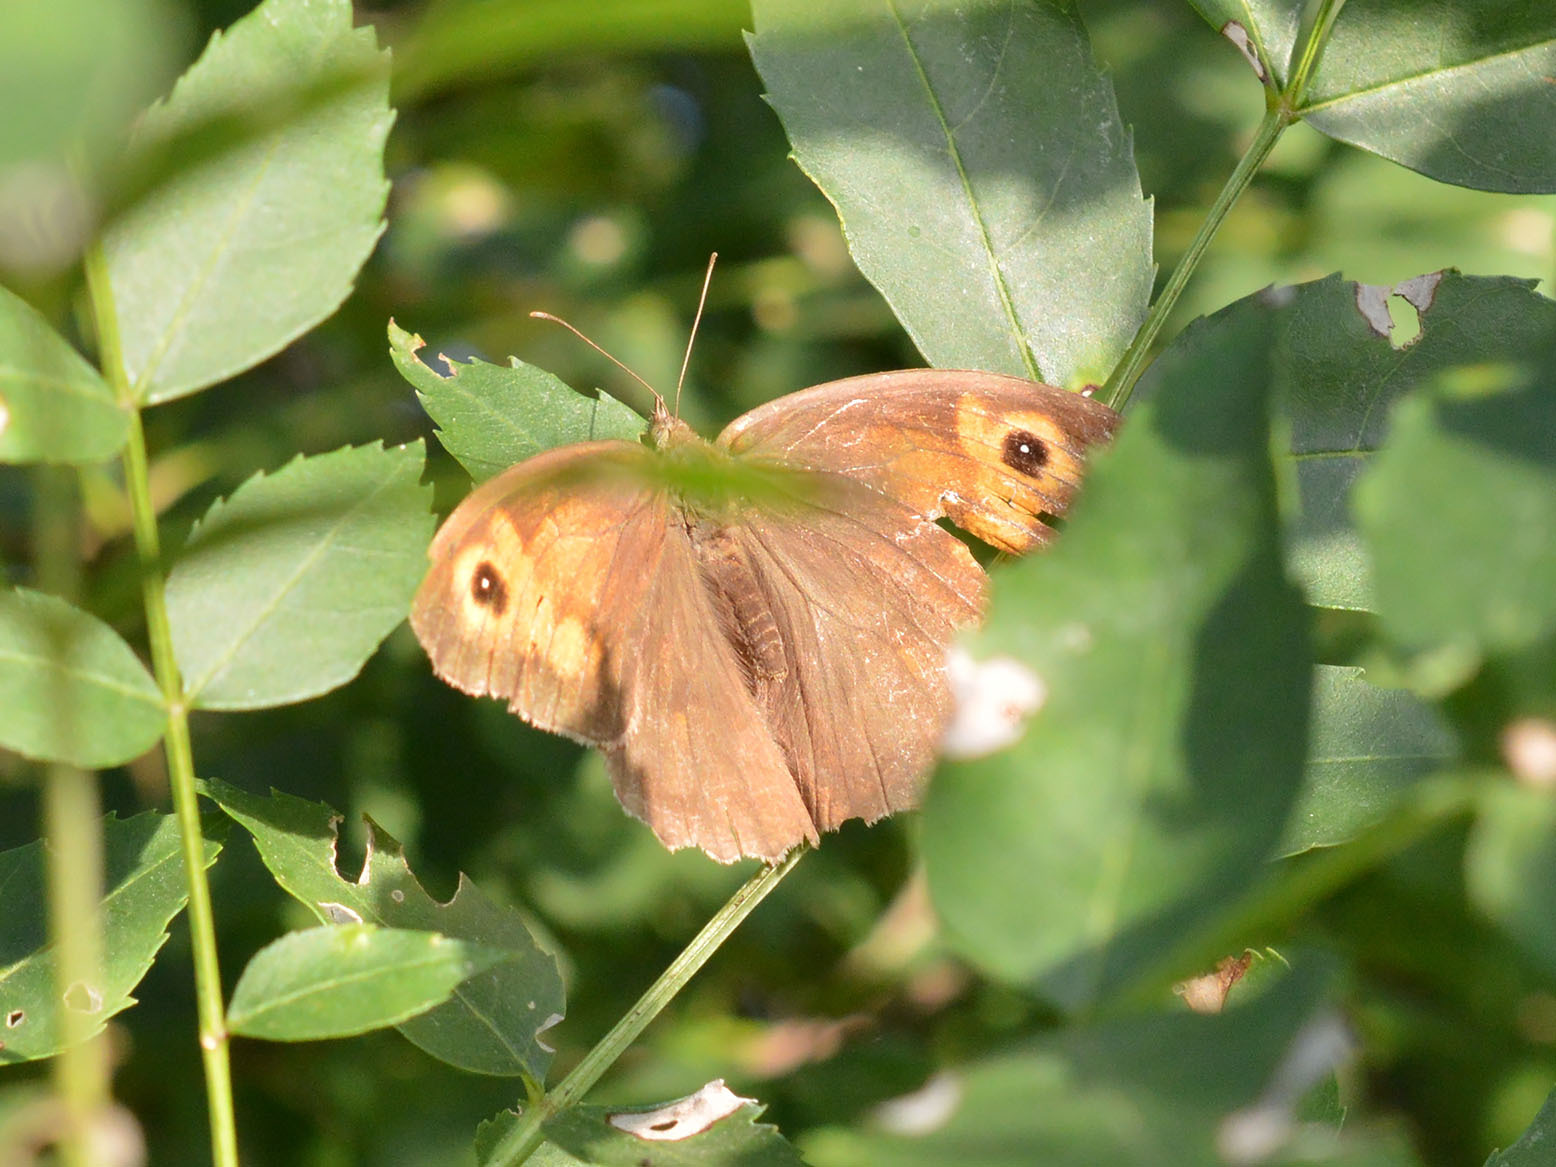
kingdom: Animalia
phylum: Arthropoda
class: Insecta
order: Lepidoptera
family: Nymphalidae
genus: Maniola
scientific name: Maniola jurtina
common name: Meadow brown
